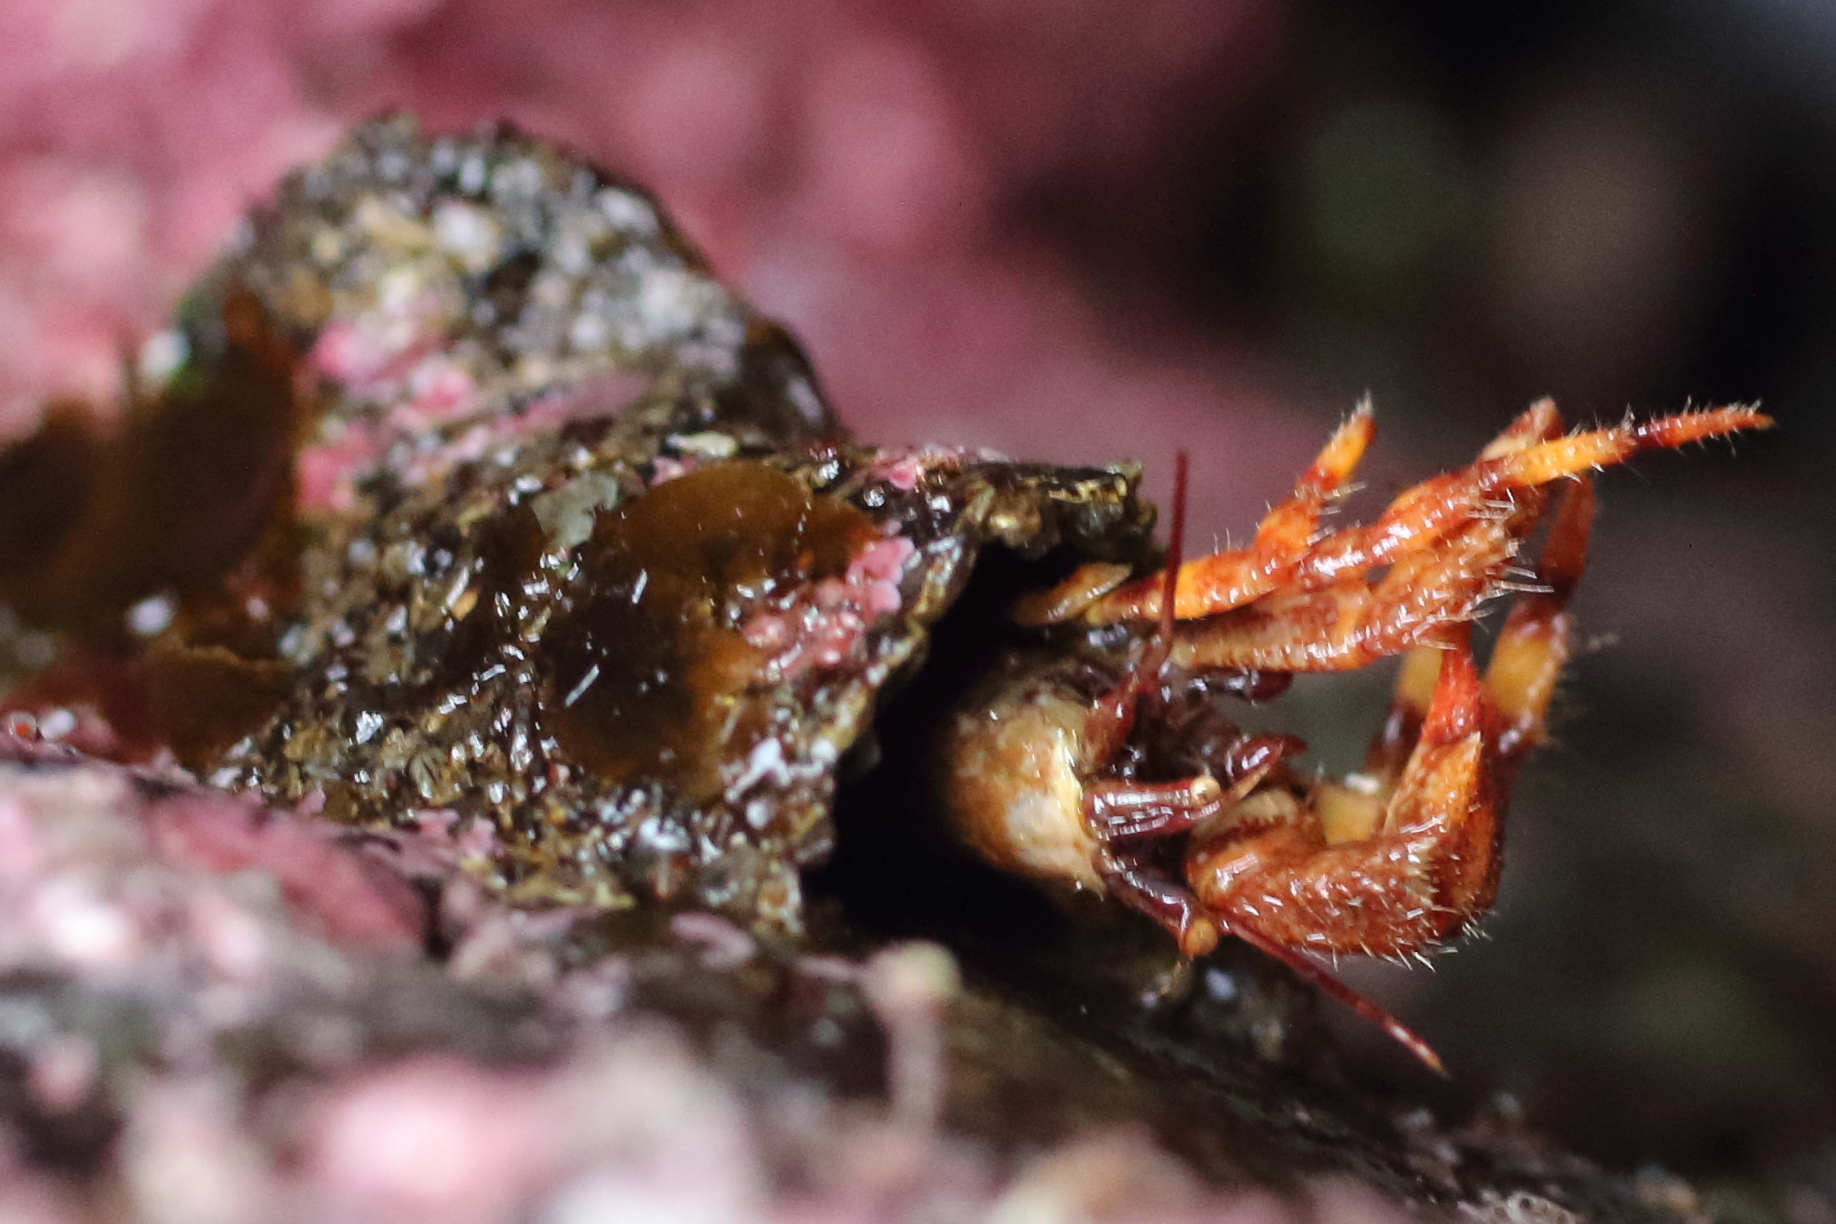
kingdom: Animalia
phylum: Arthropoda
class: Malacostraca
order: Decapoda
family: Paguridae
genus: Discorsopagurus
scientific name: Discorsopagurus schmitti
